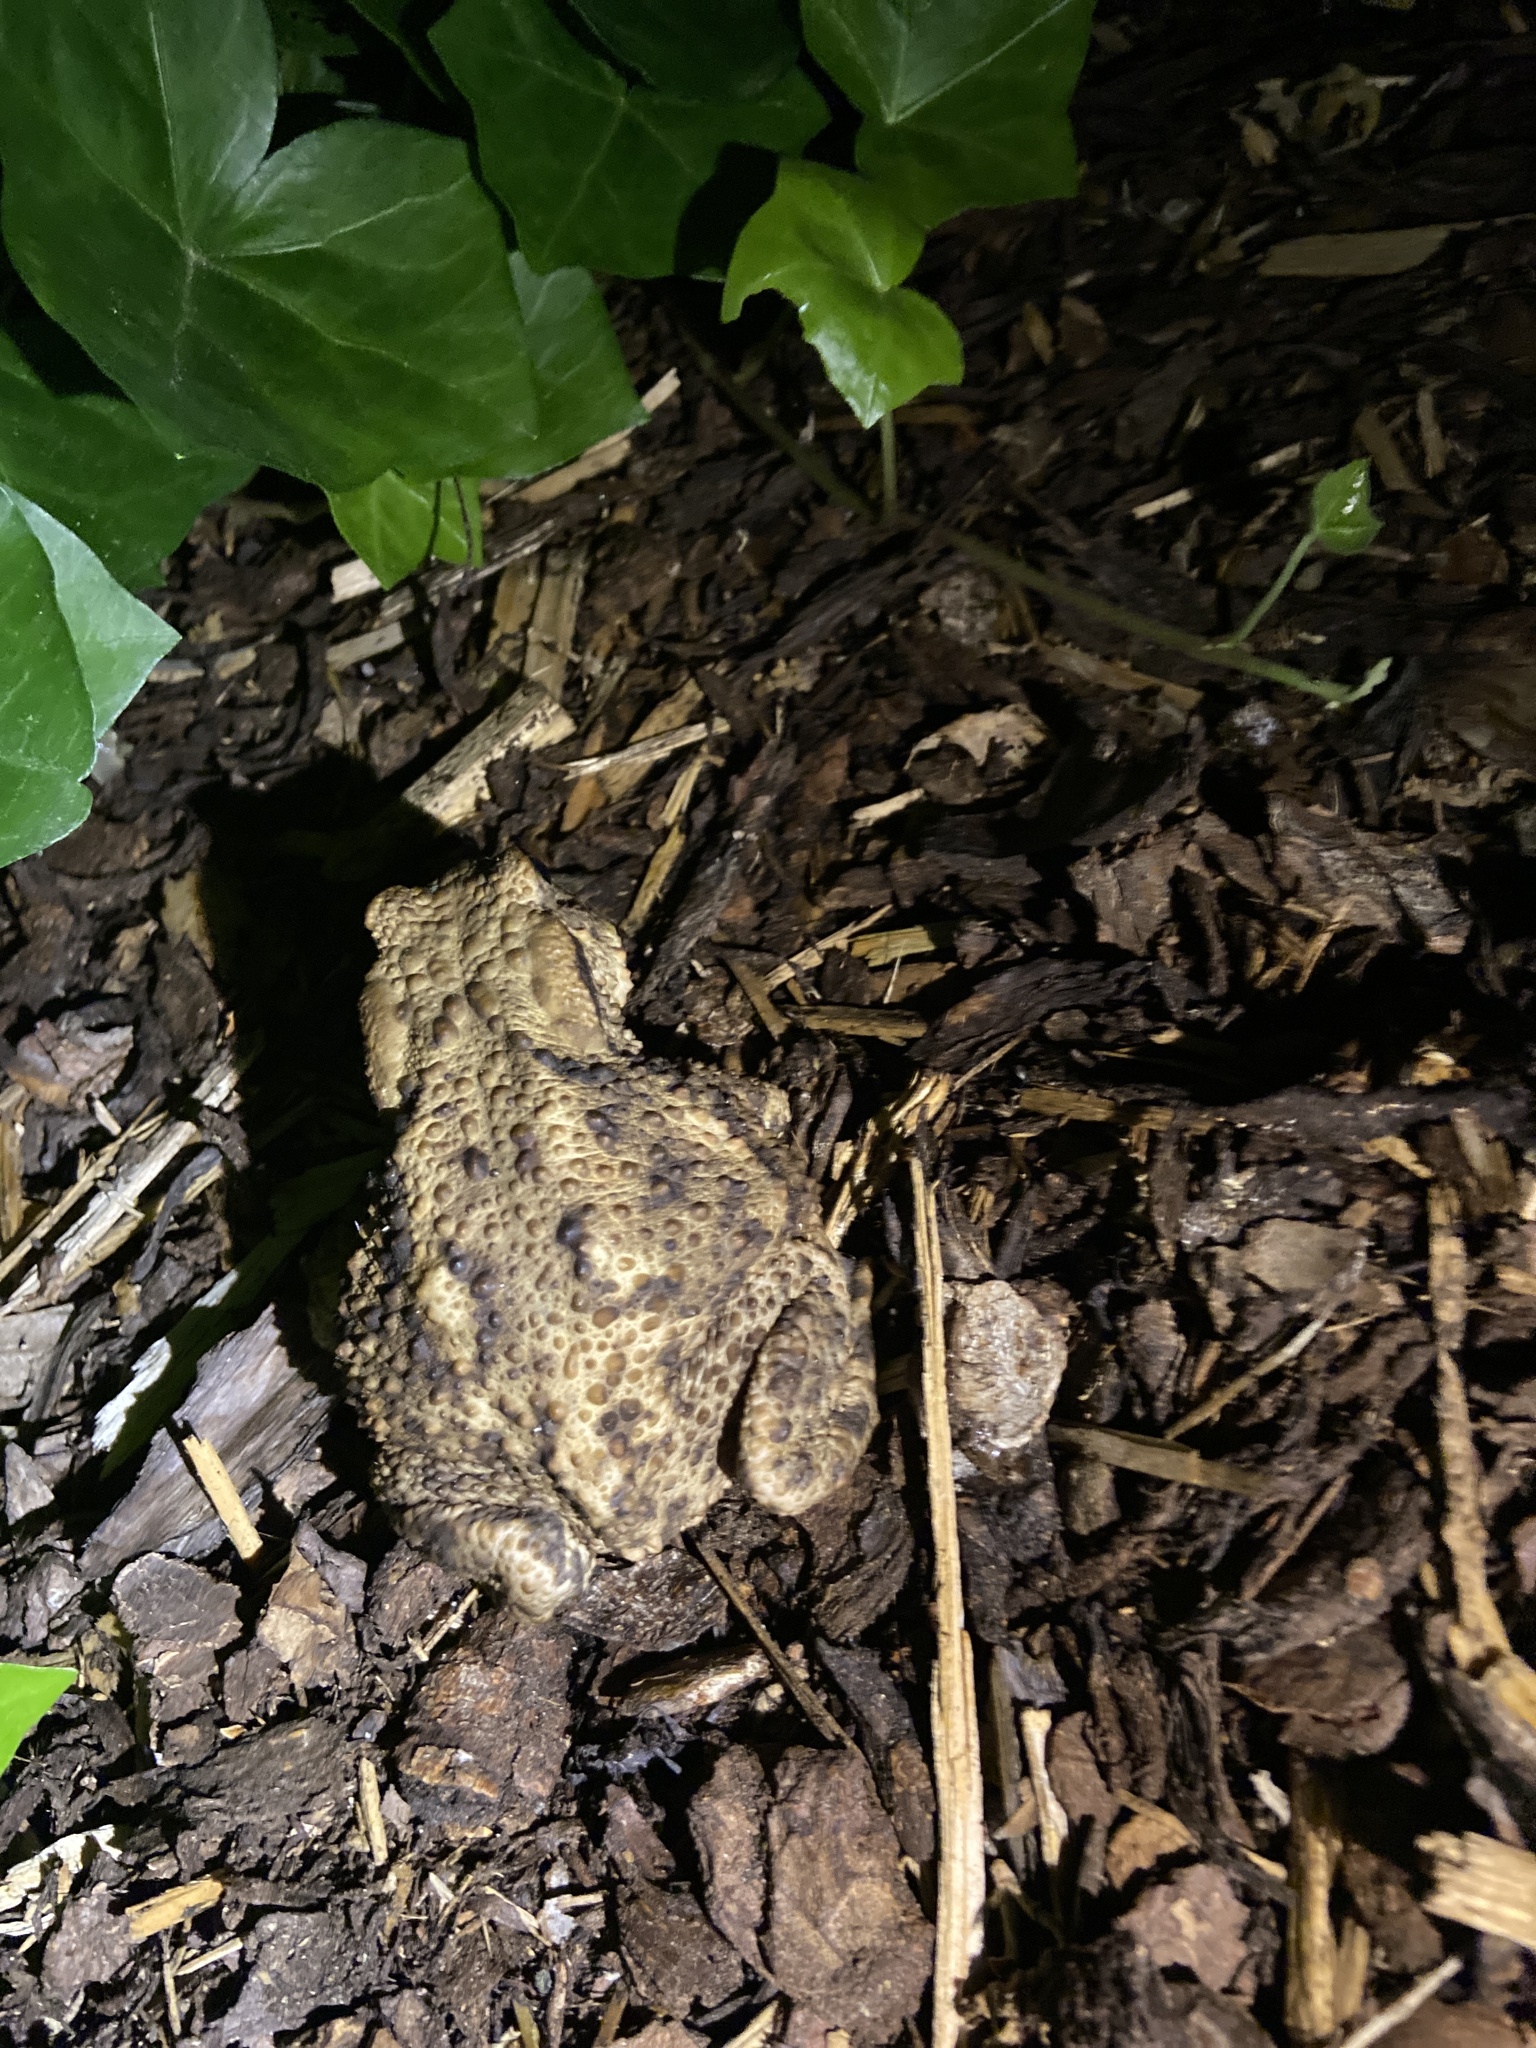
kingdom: Animalia
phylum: Chordata
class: Amphibia
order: Anura
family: Bufonidae
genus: Bufo
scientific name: Bufo bufo
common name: Common toad
